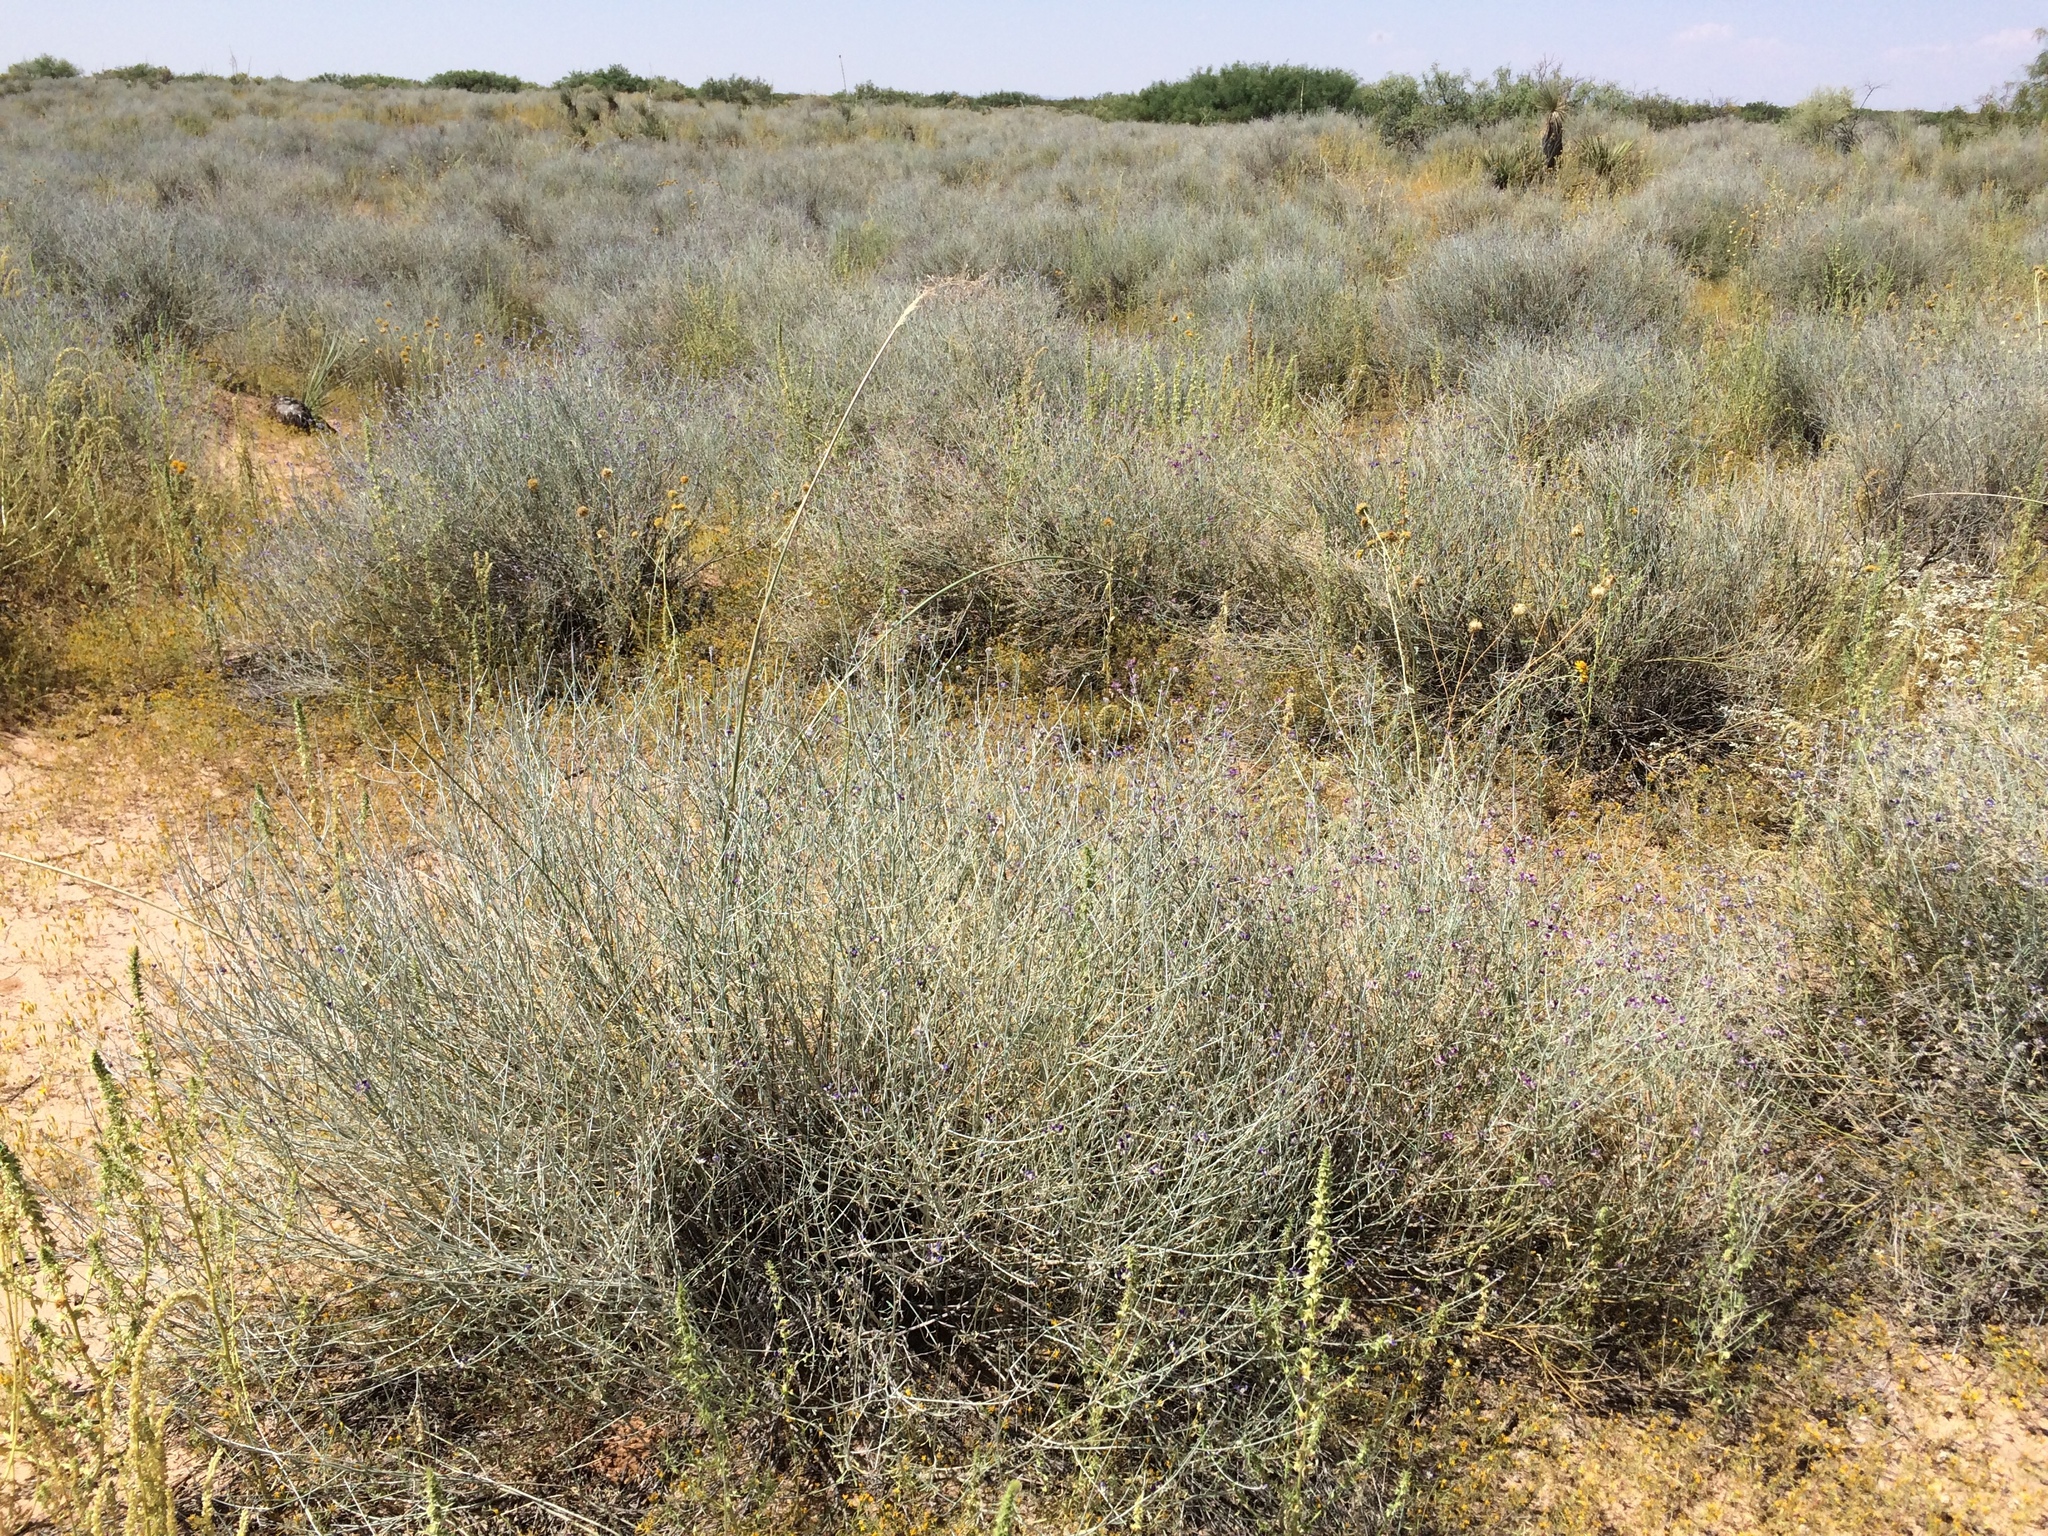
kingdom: Plantae
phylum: Tracheophyta
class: Liliopsida
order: Poales
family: Poaceae
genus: Sporobolus
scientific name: Sporobolus flexuosus
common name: Mesa dropseed
